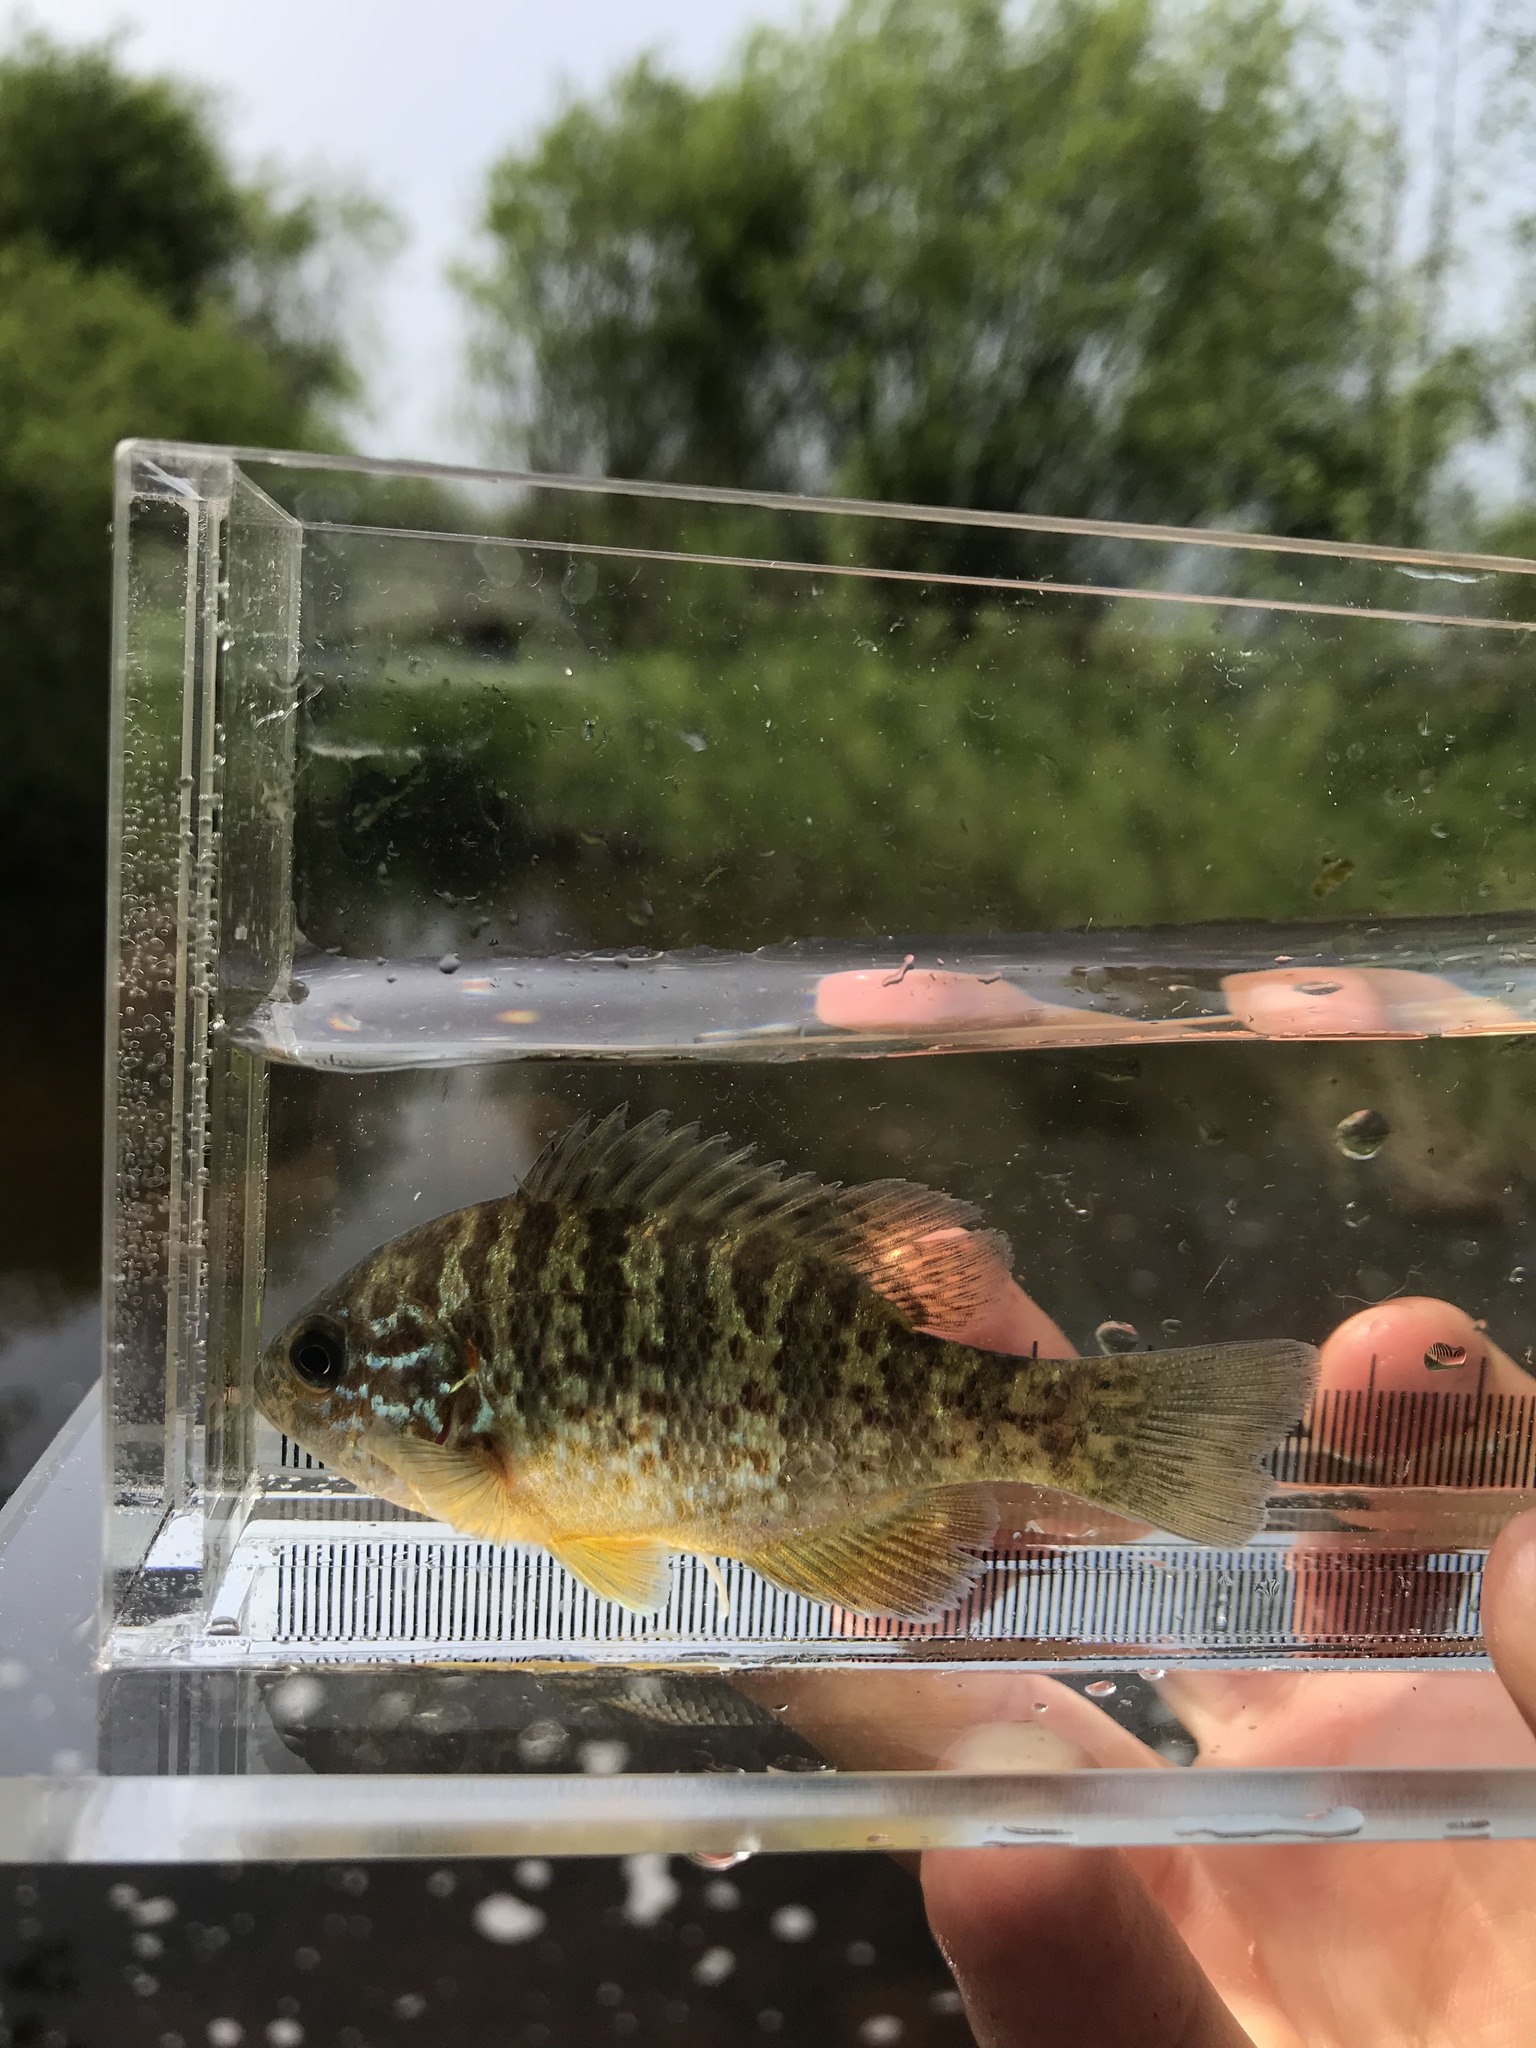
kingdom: Animalia
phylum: Chordata
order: Perciformes
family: Centrarchidae
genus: Lepomis
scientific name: Lepomis gibbosus
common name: Pumpkinseed
